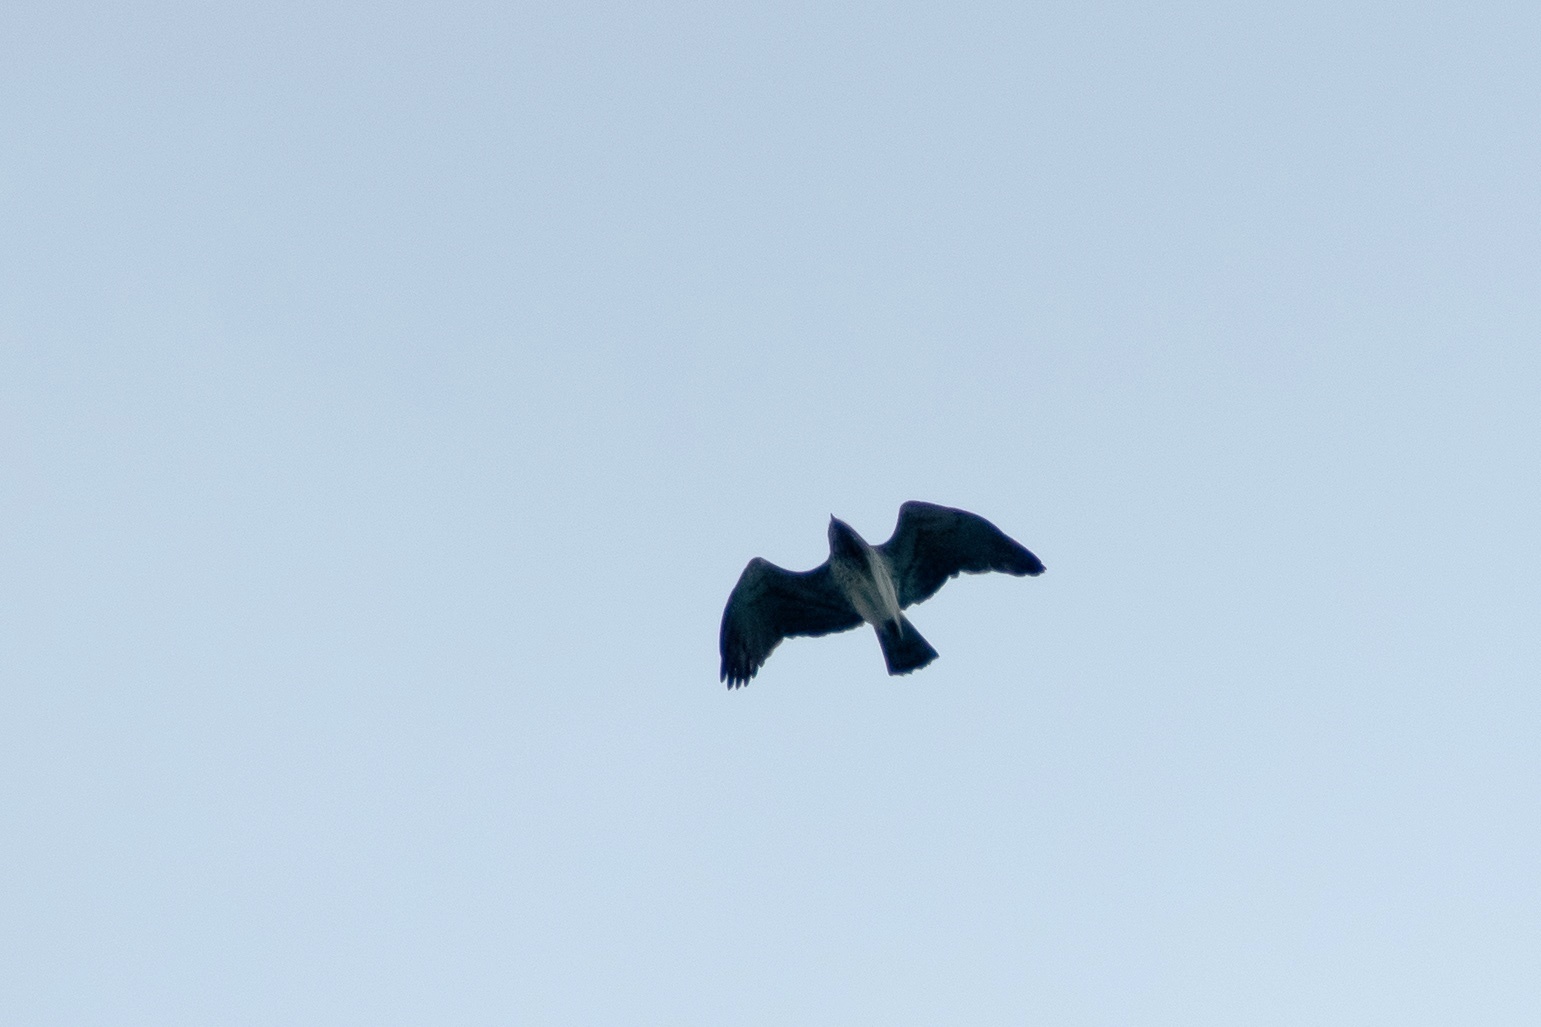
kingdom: Animalia
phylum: Chordata
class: Aves
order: Accipitriformes
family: Accipitridae
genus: Circaetus
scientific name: Circaetus gallicus
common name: Short-toed snake eagle
